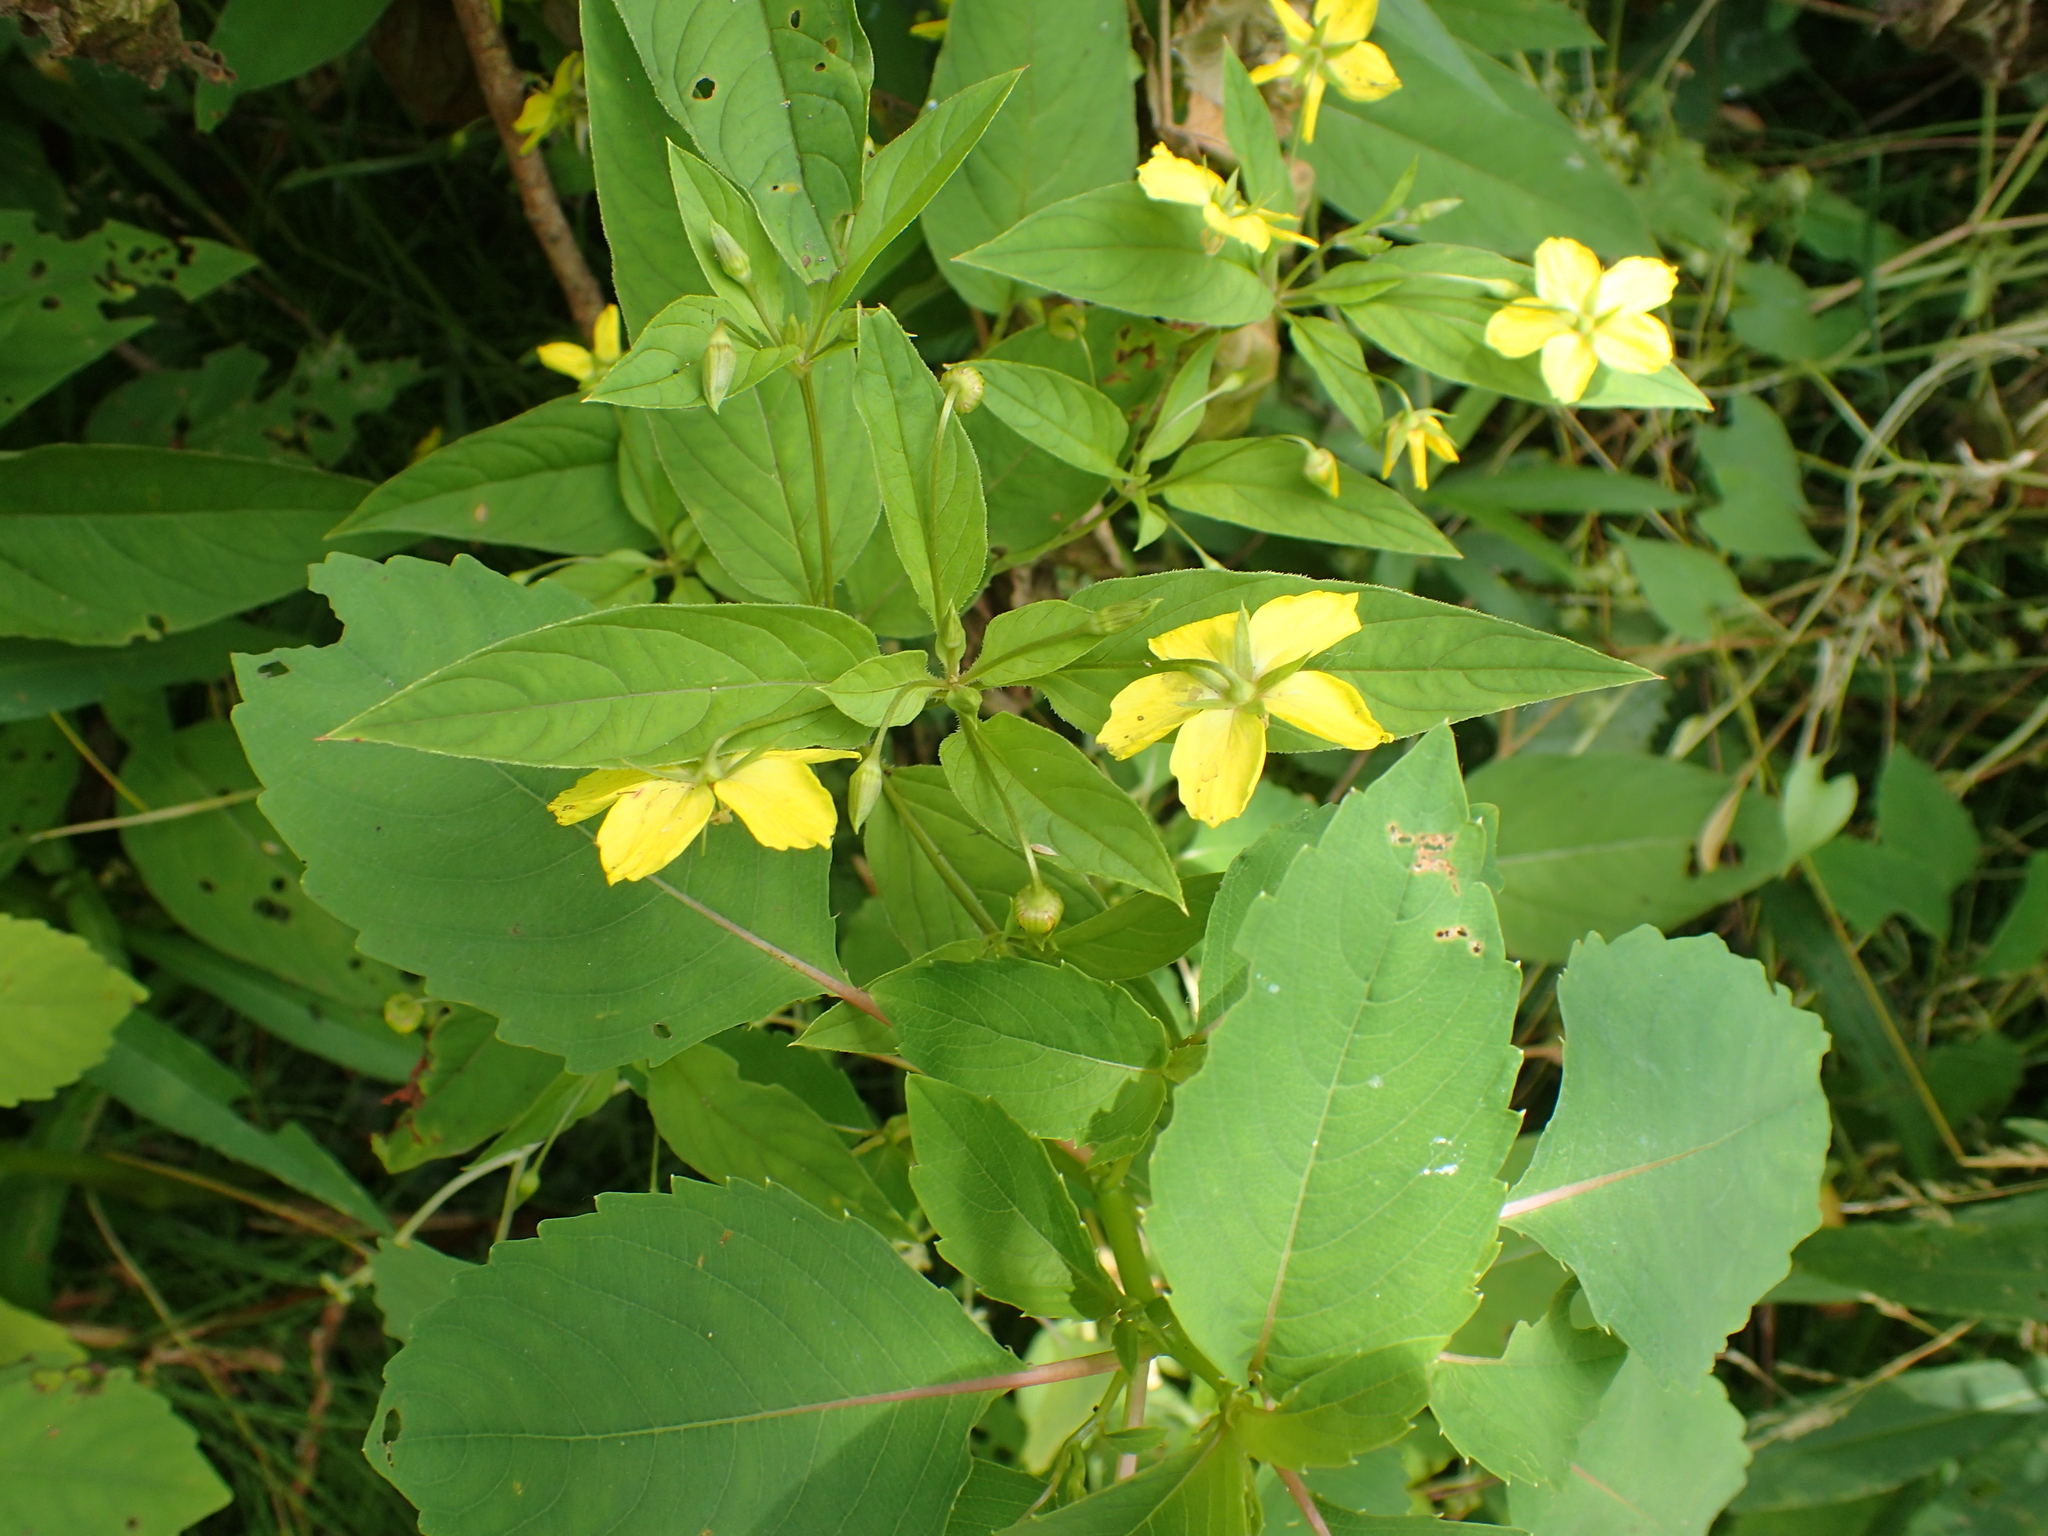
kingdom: Plantae
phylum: Tracheophyta
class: Magnoliopsida
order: Ericales
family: Primulaceae
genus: Lysimachia
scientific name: Lysimachia ciliata
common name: Fringed loosestrife
